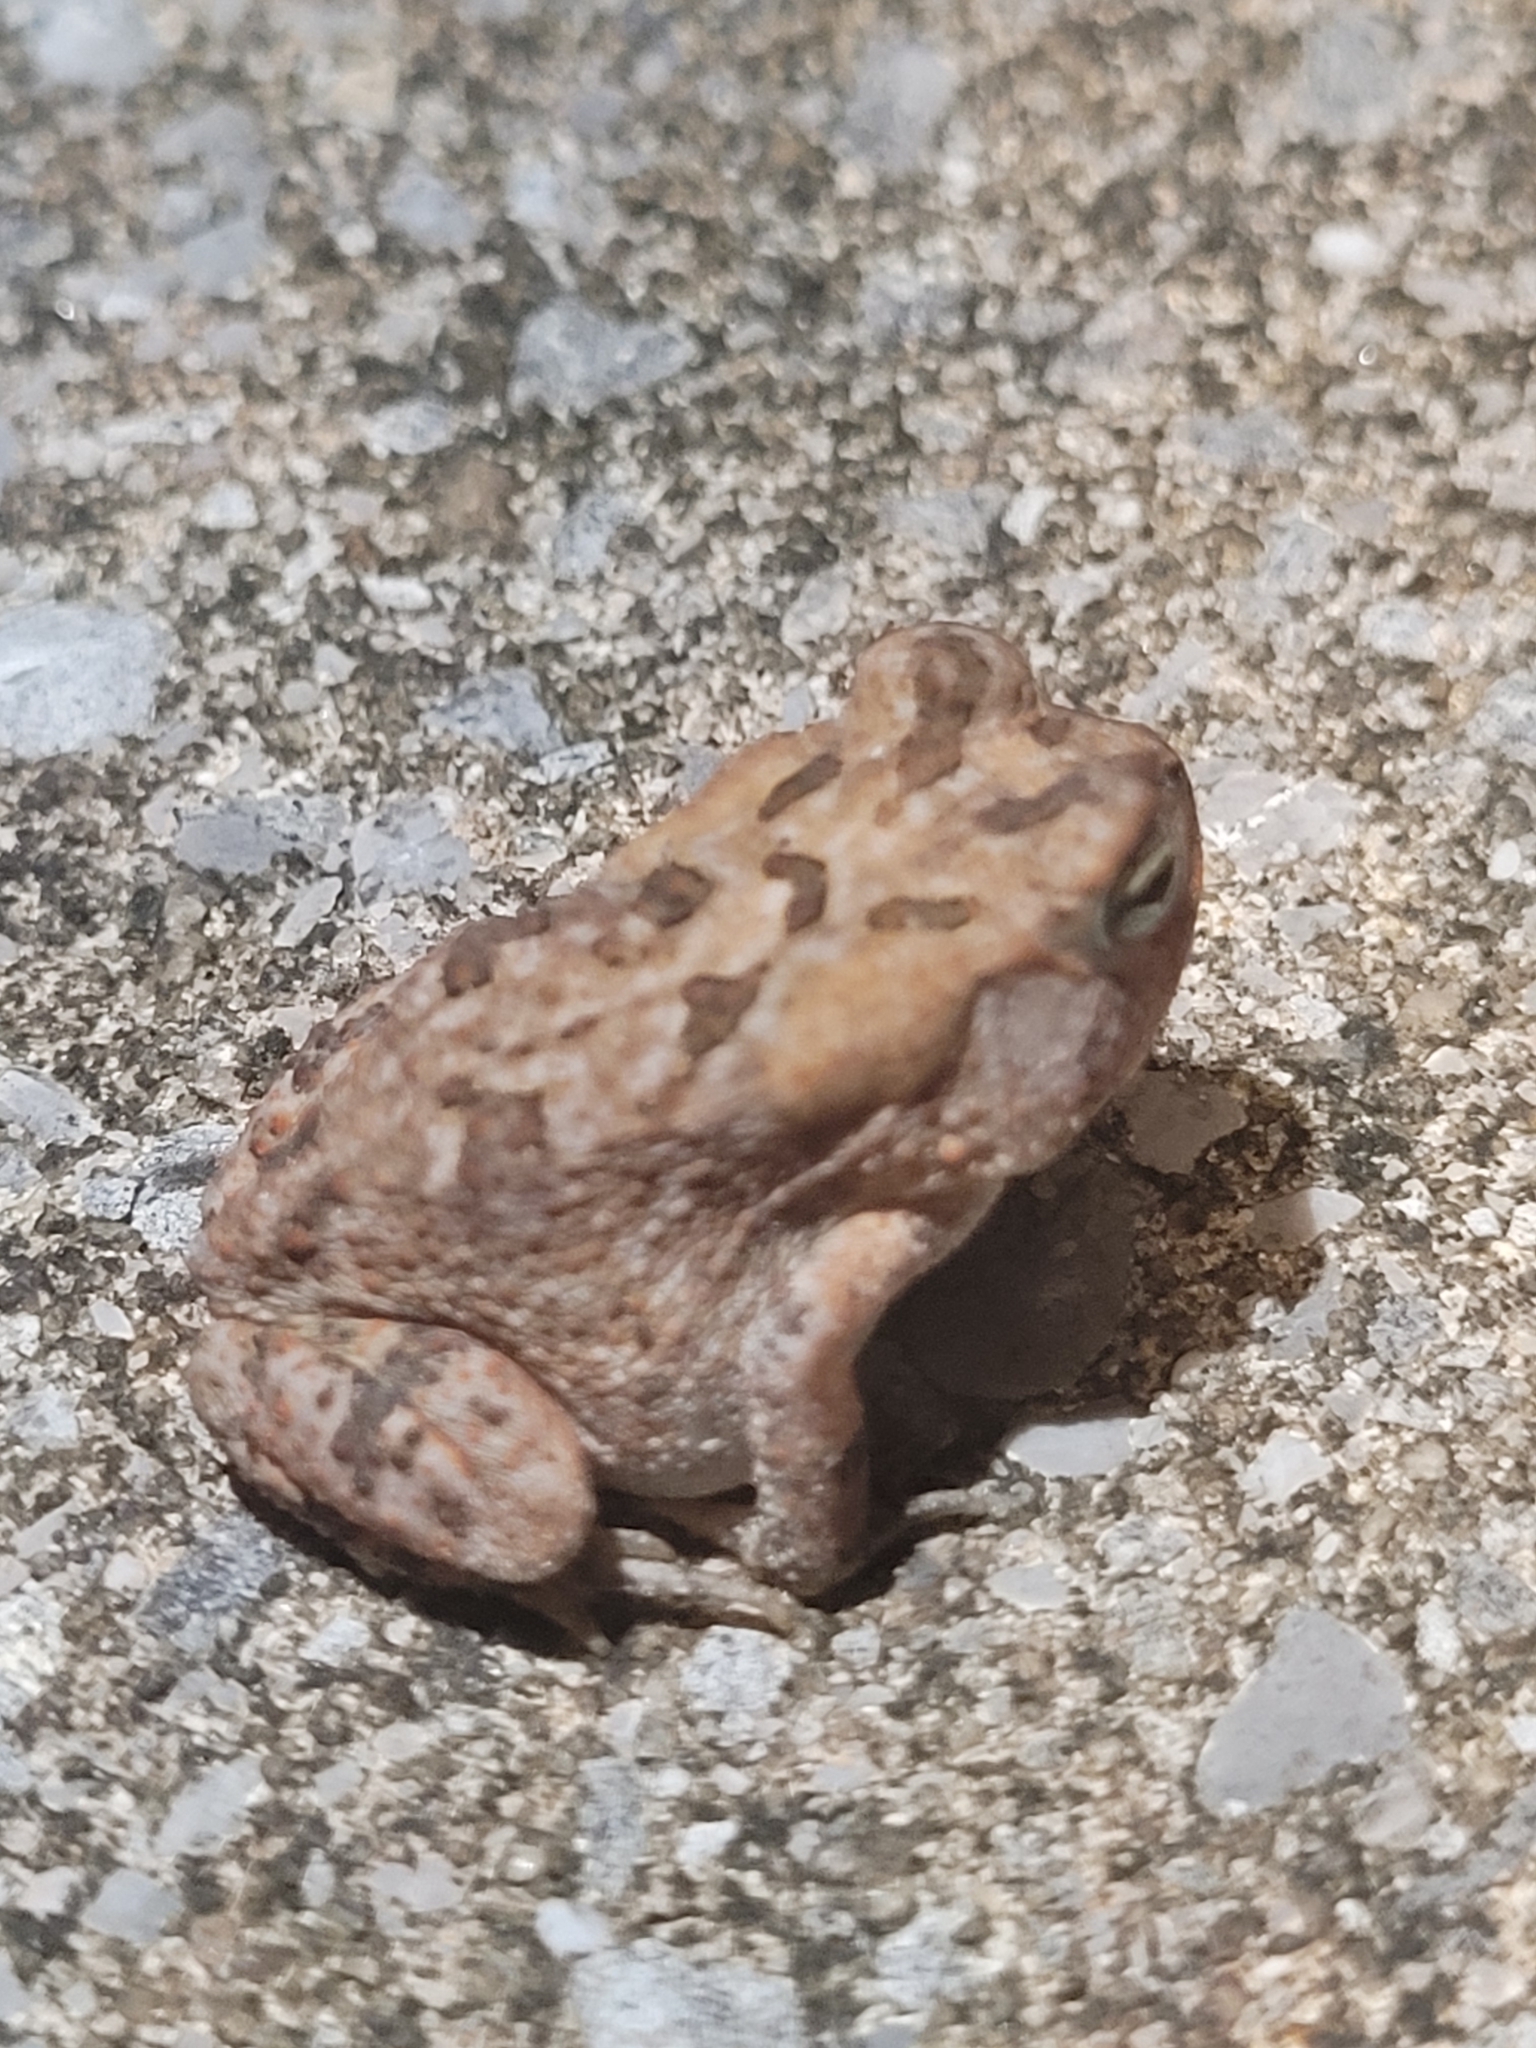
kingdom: Animalia
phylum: Chordata
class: Amphibia
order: Anura
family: Bufonidae
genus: Anaxyrus
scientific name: Anaxyrus terrestris
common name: Southern toad
